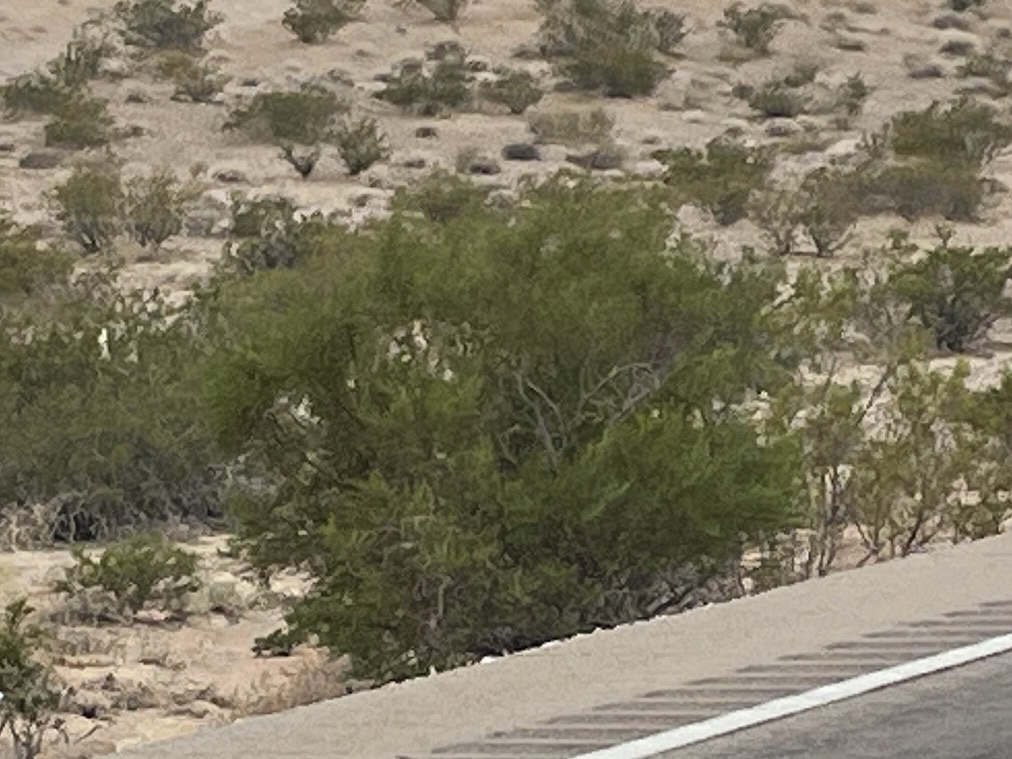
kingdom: Plantae
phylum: Tracheophyta
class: Magnoliopsida
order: Zygophyllales
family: Zygophyllaceae
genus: Larrea
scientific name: Larrea tridentata
